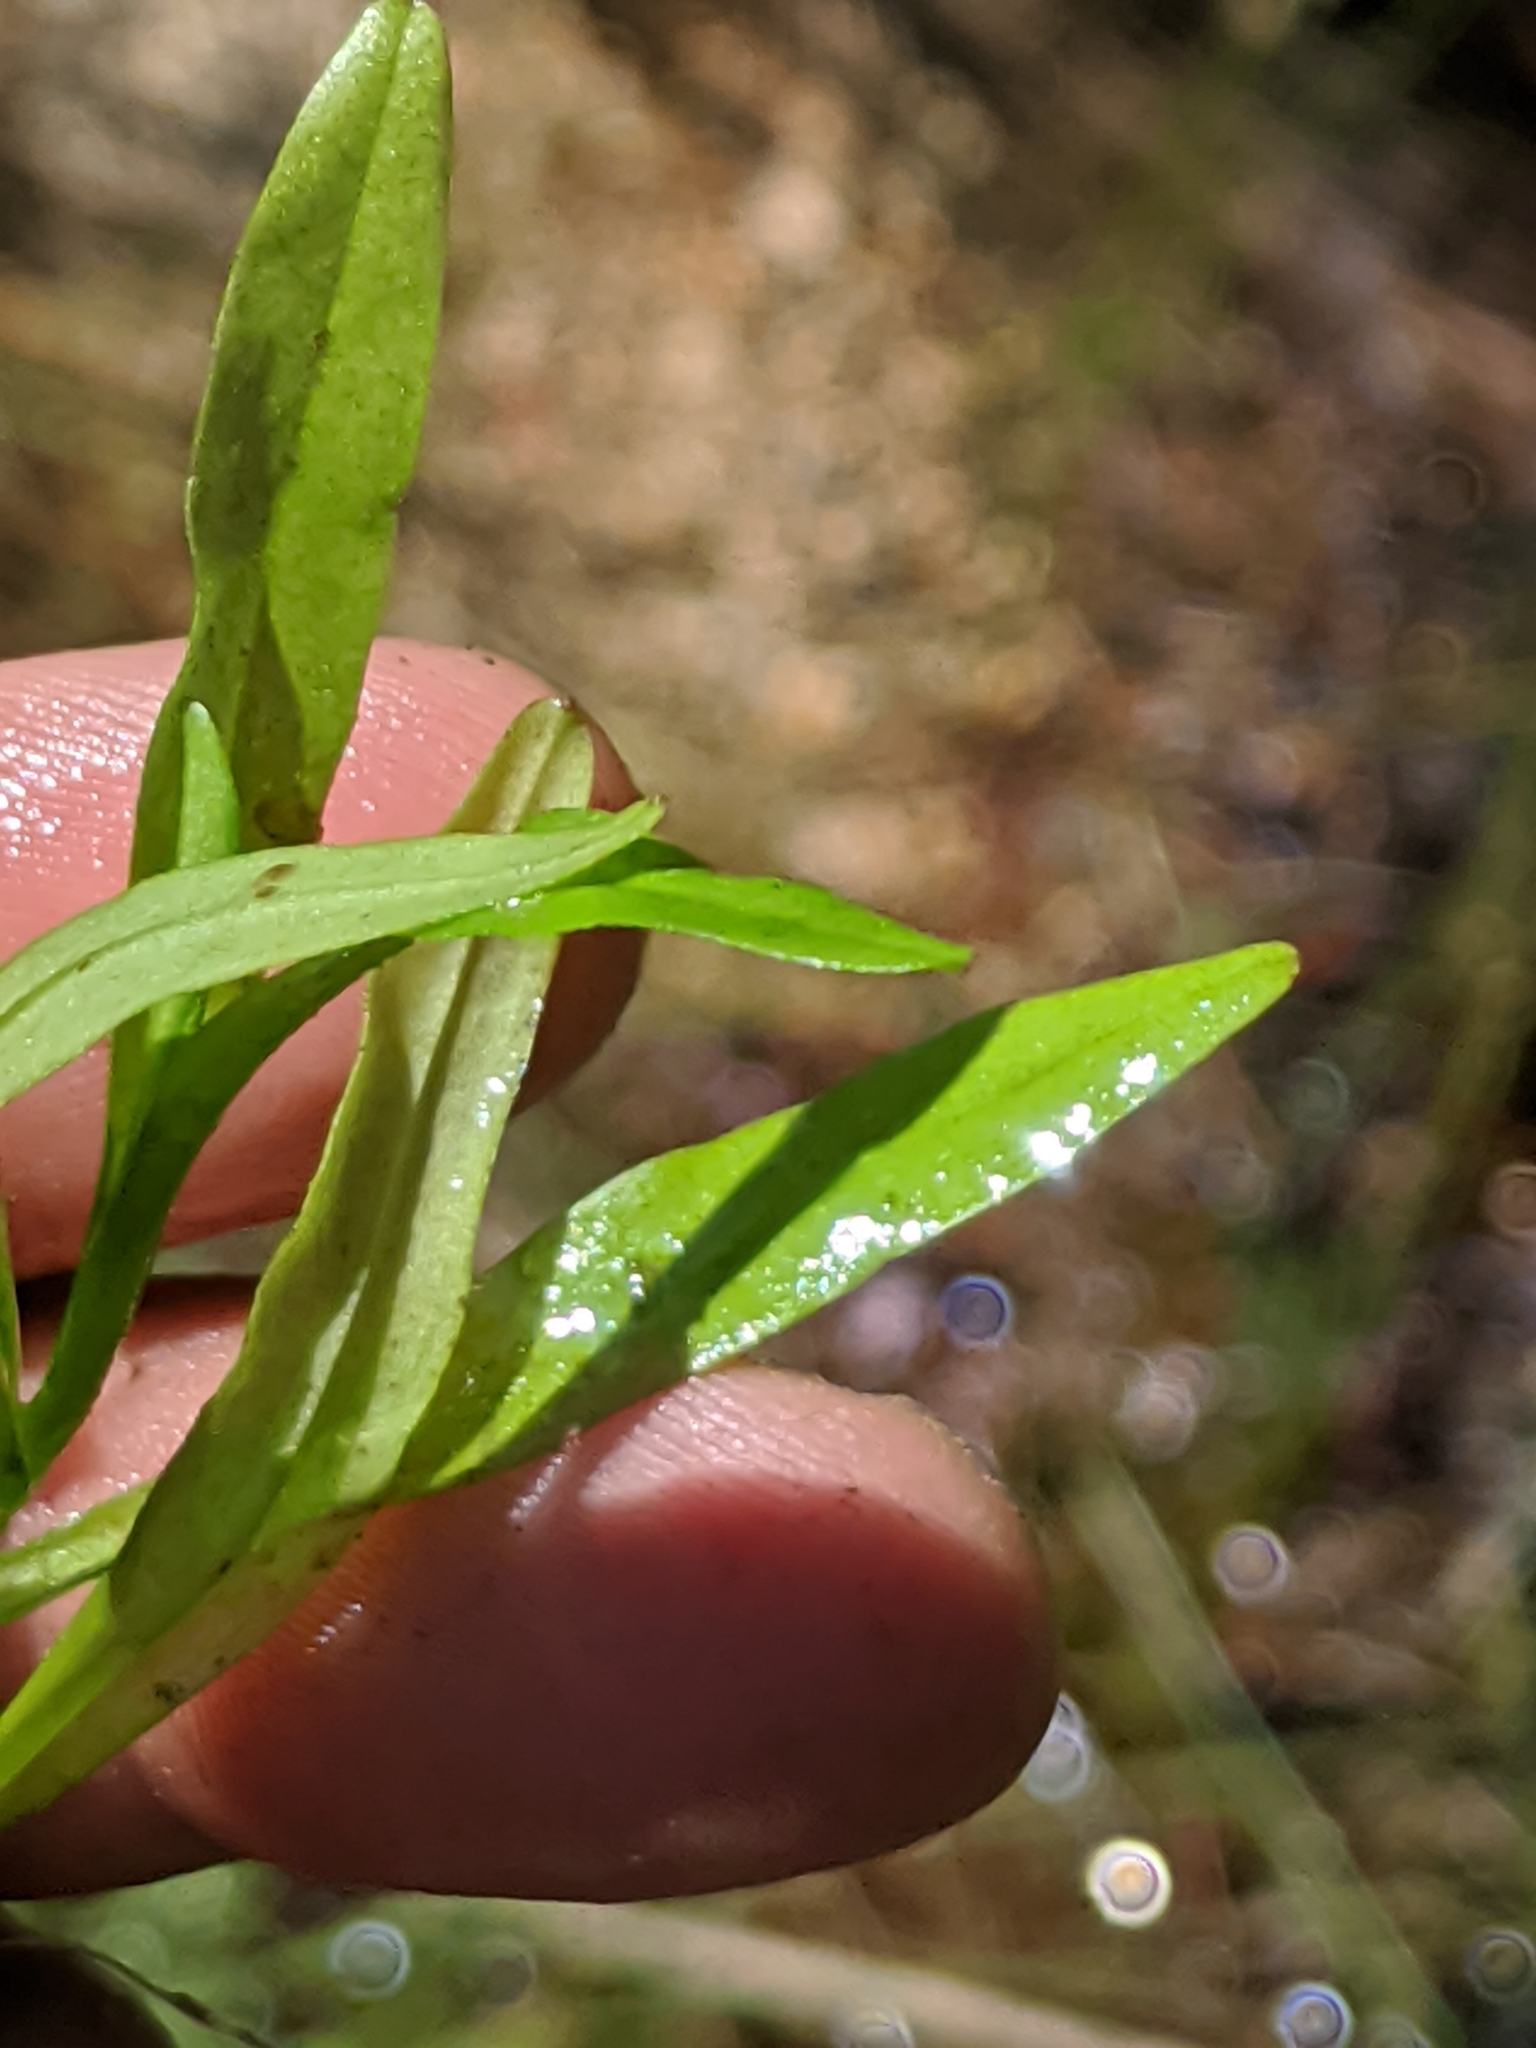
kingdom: Plantae
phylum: Tracheophyta
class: Magnoliopsida
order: Boraginales
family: Boraginaceae
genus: Myosotis
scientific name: Myosotis laxa
